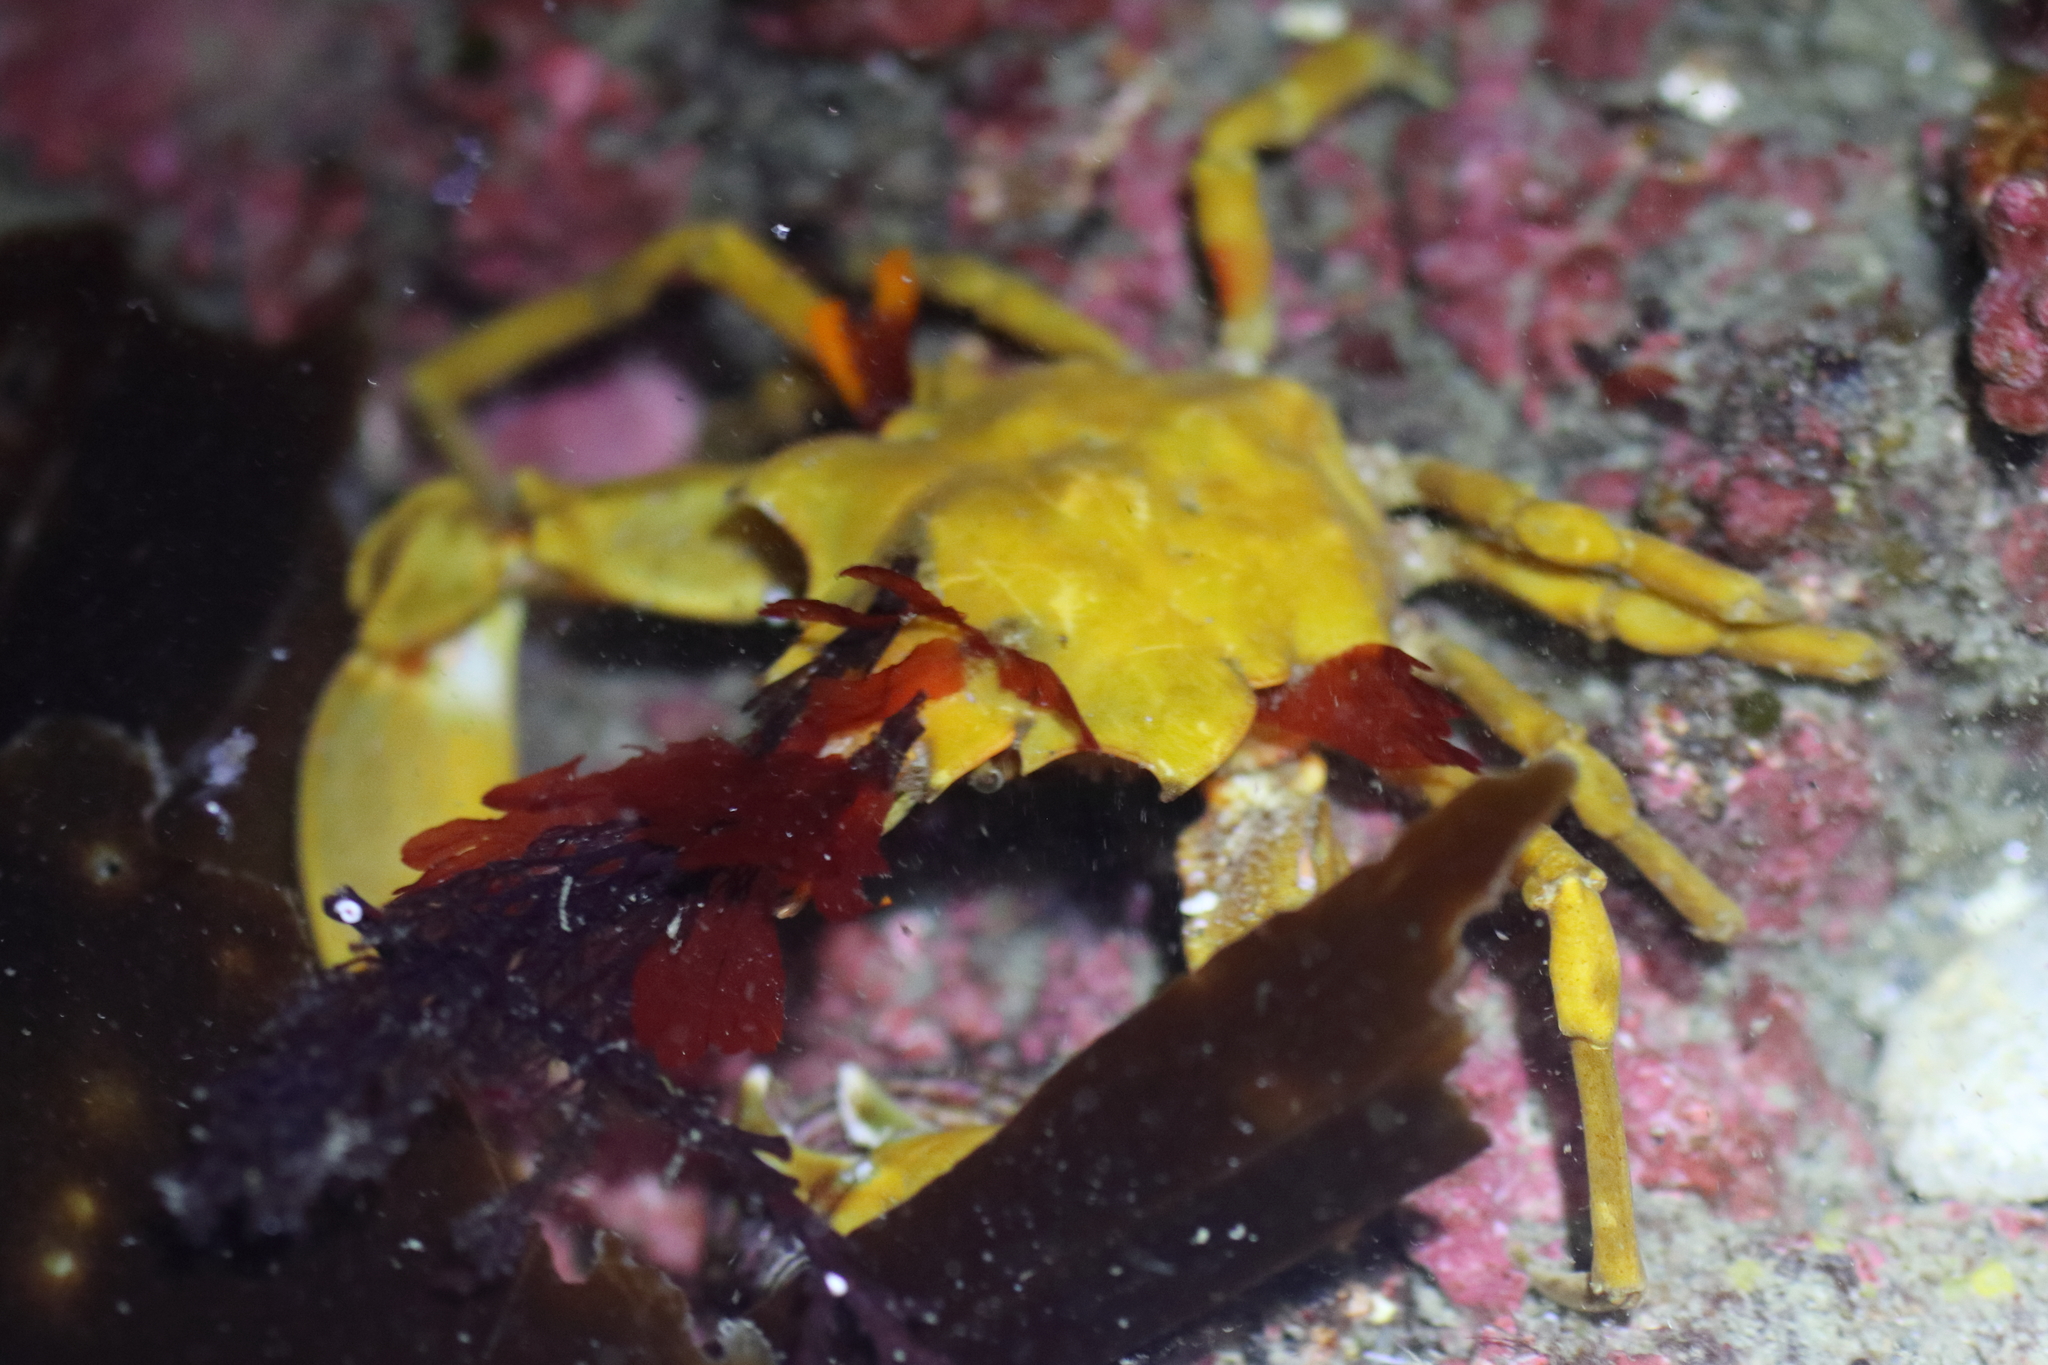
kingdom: Animalia
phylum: Arthropoda
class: Malacostraca
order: Decapoda
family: Epialtidae
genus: Pugettia
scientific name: Pugettia gracilis
